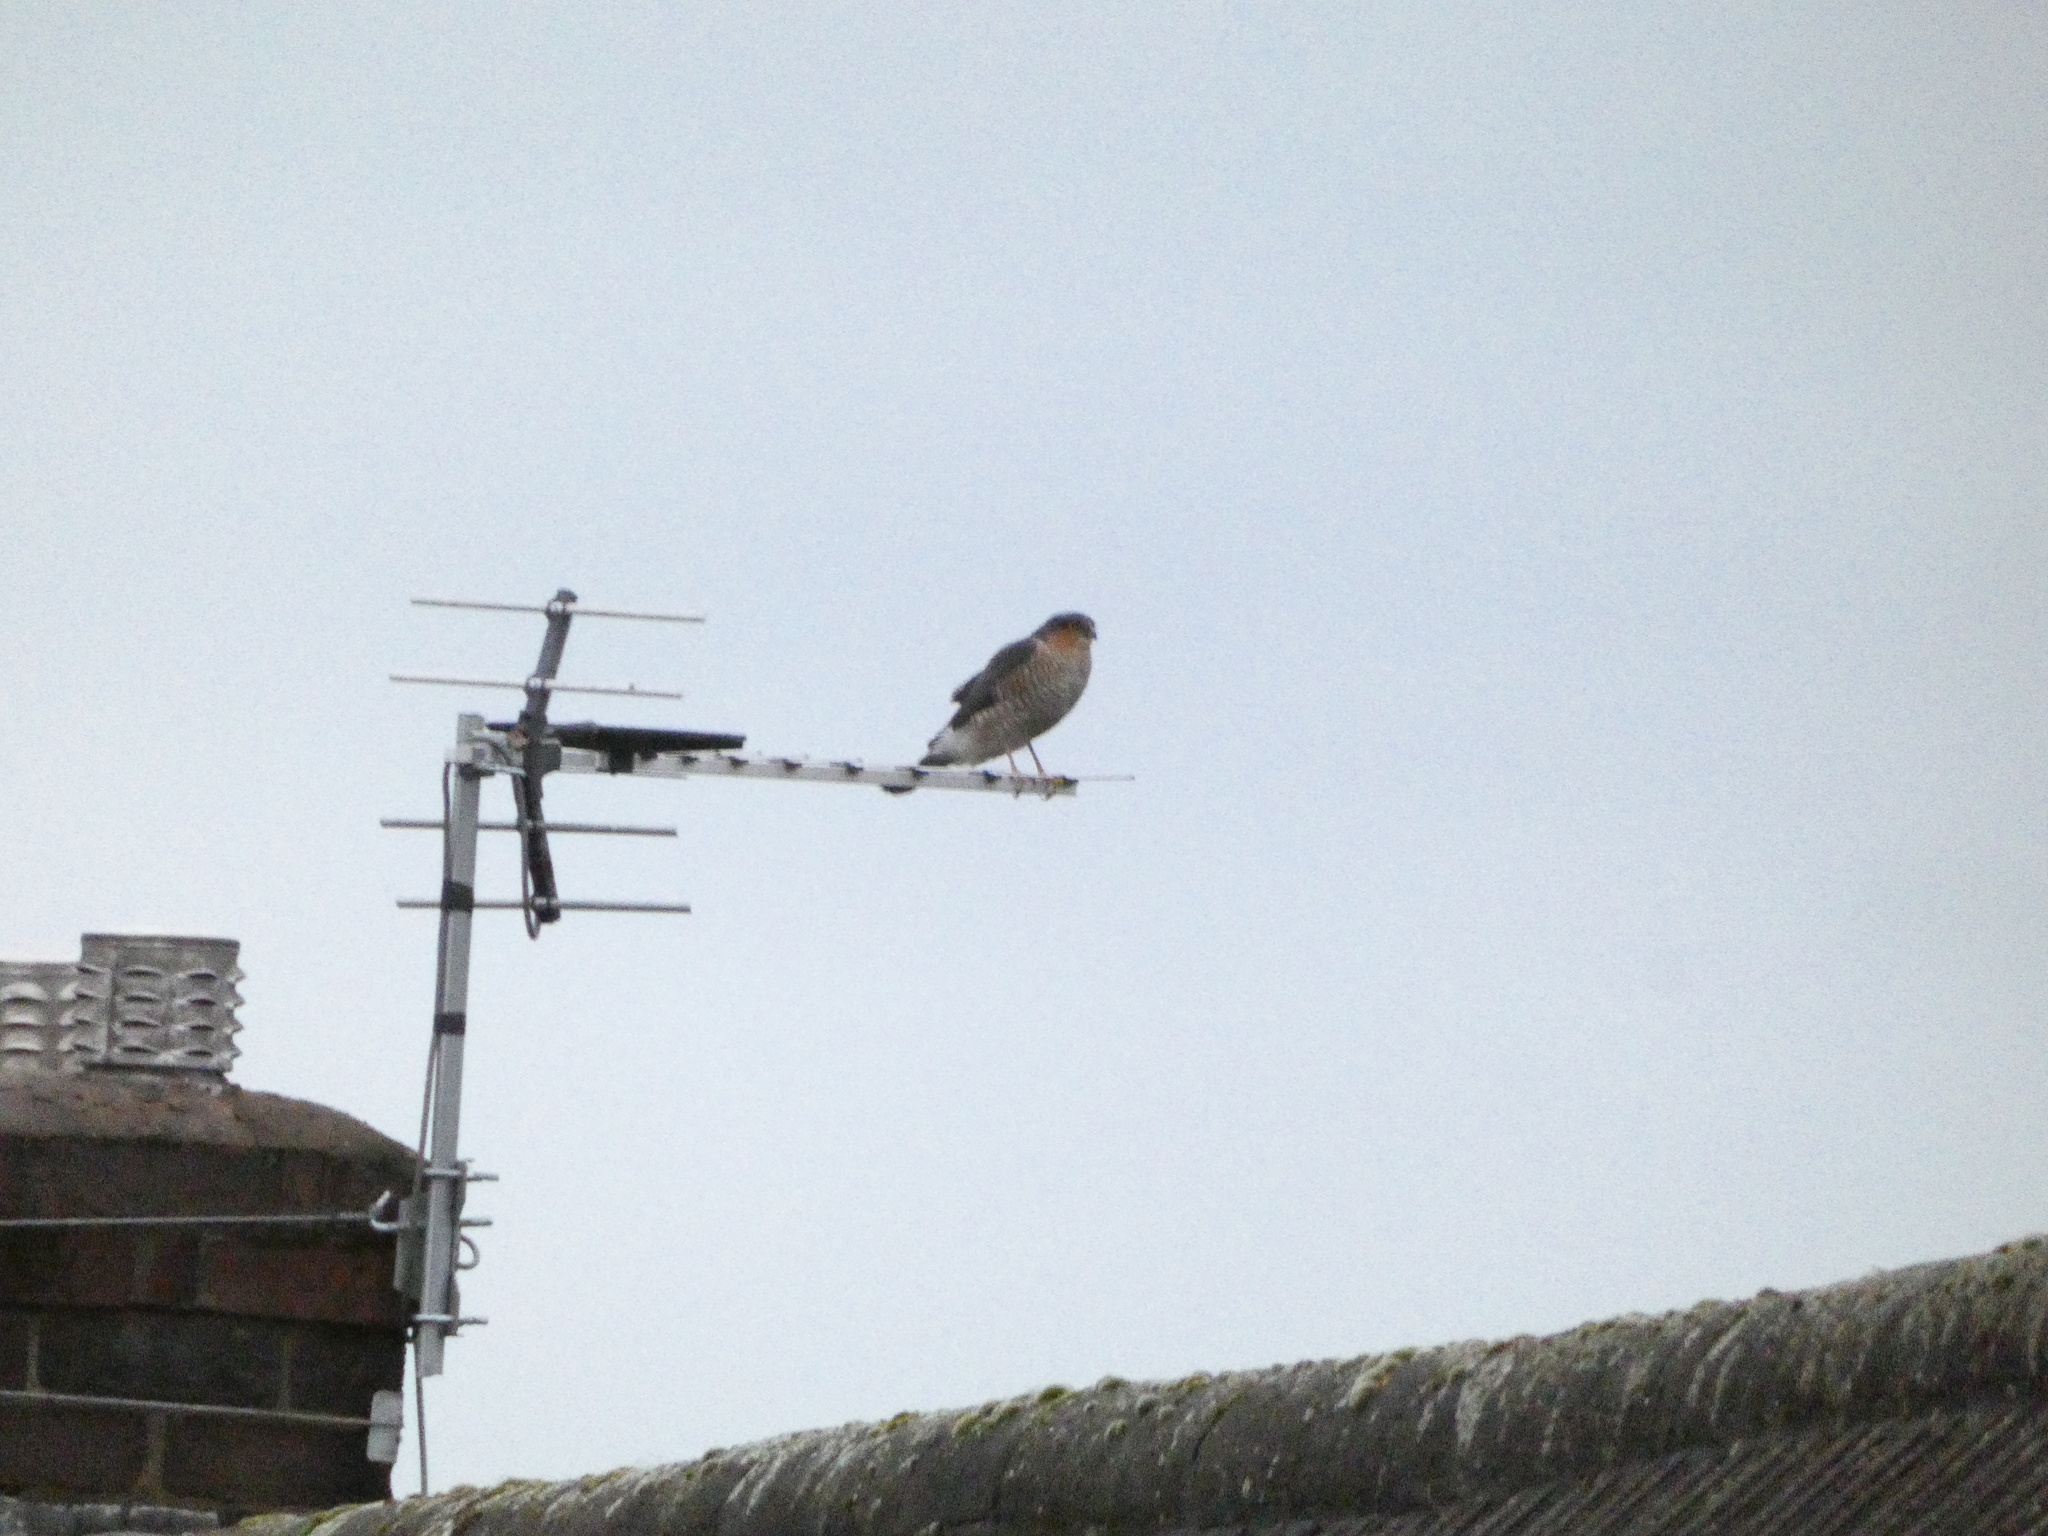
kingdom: Animalia
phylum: Chordata
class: Aves
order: Accipitriformes
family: Accipitridae
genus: Accipiter
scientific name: Accipiter nisus
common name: Eurasian sparrowhawk
